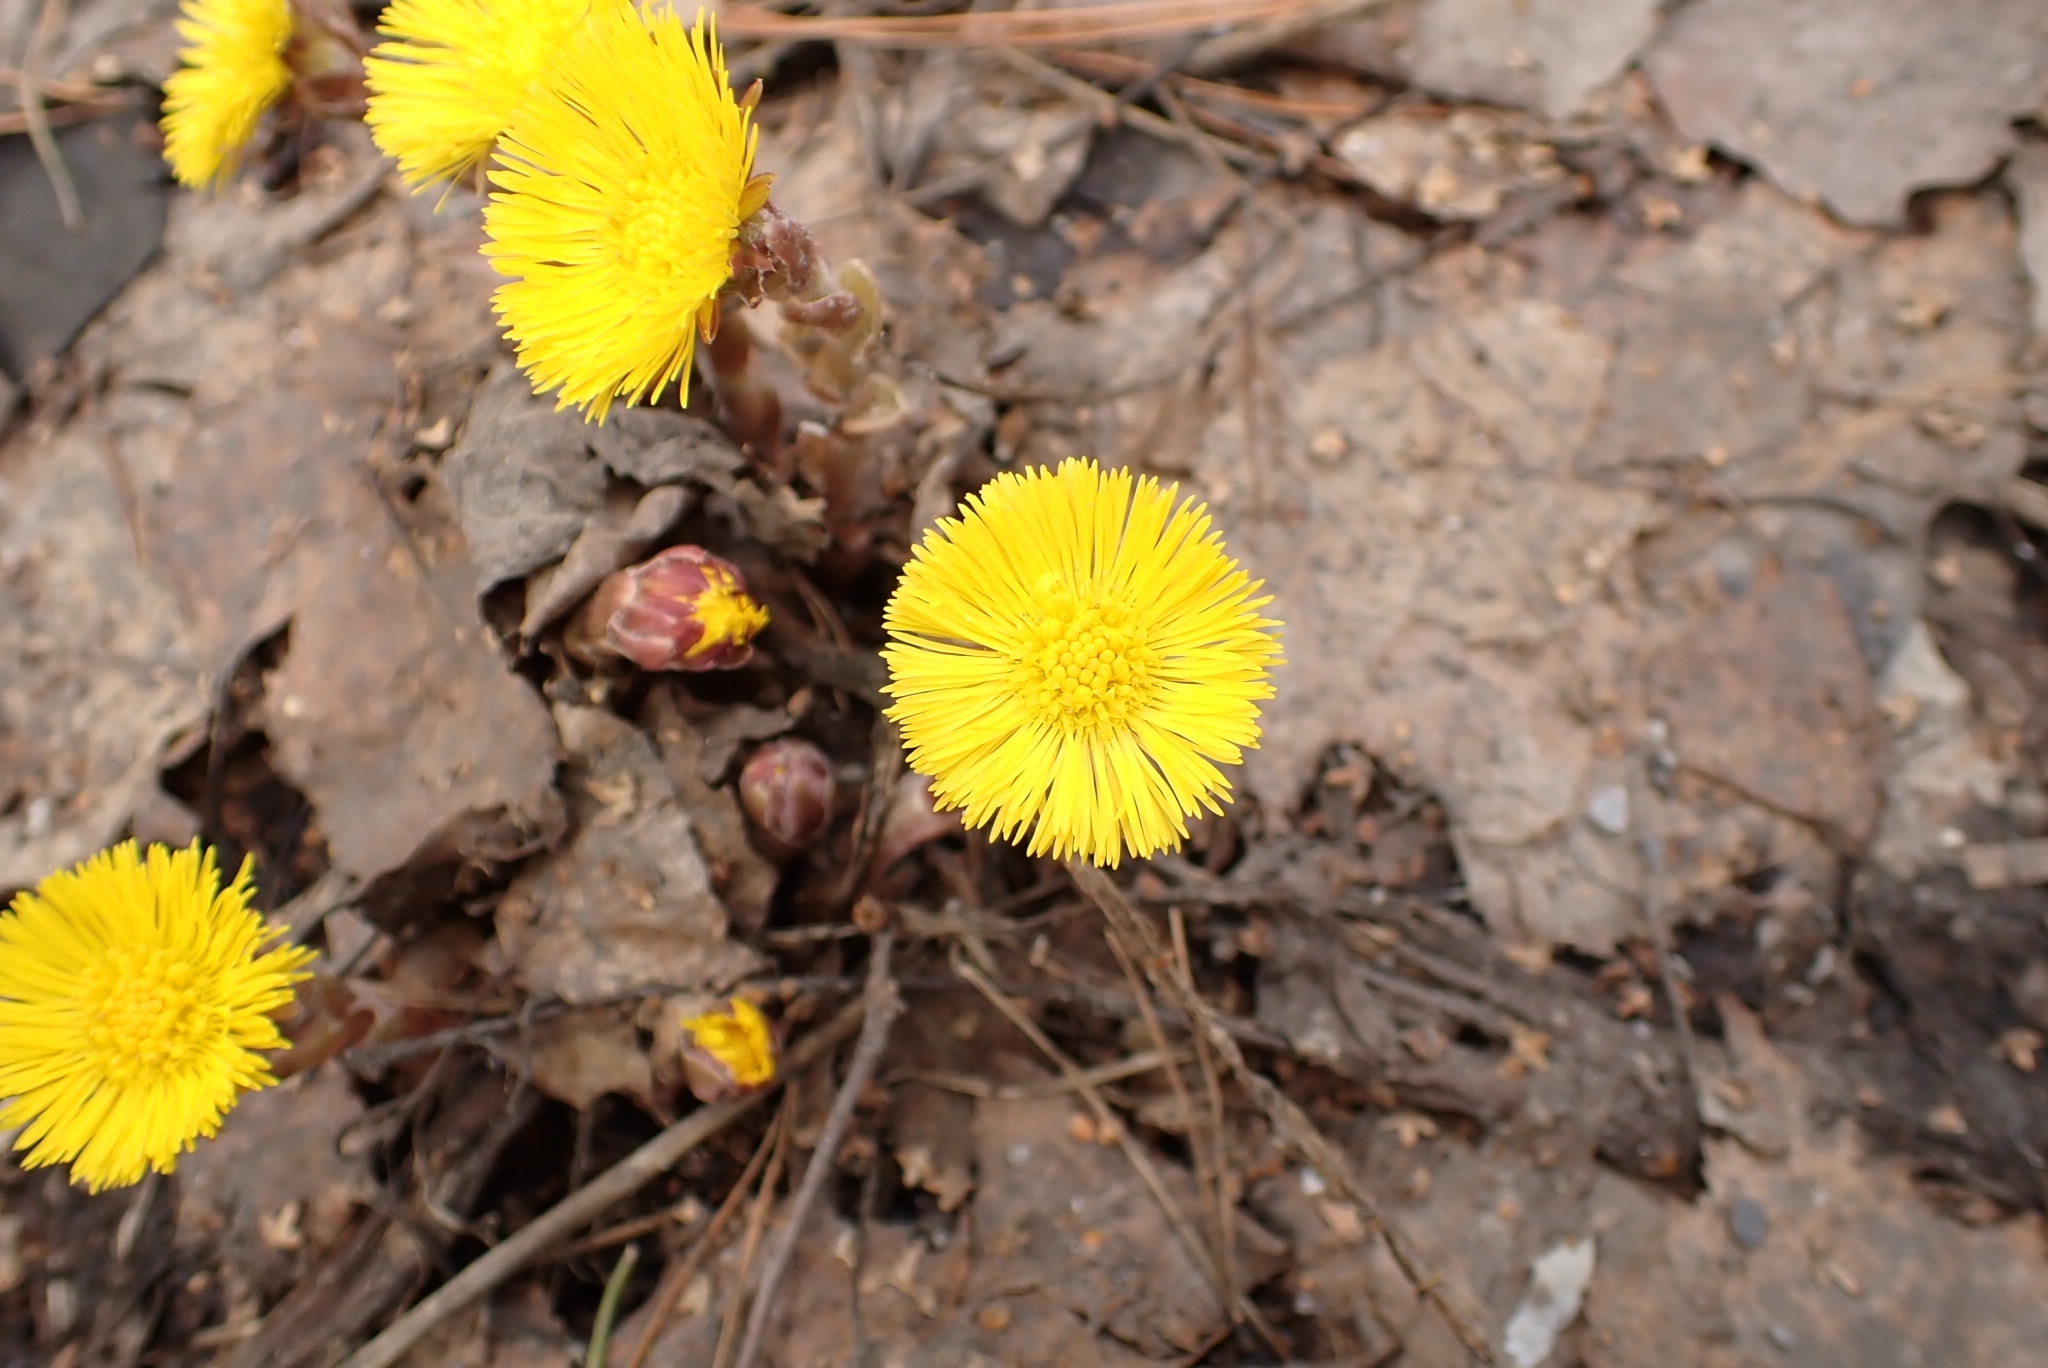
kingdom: Plantae
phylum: Tracheophyta
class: Magnoliopsida
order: Asterales
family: Asteraceae
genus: Tussilago
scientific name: Tussilago farfara
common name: Coltsfoot
